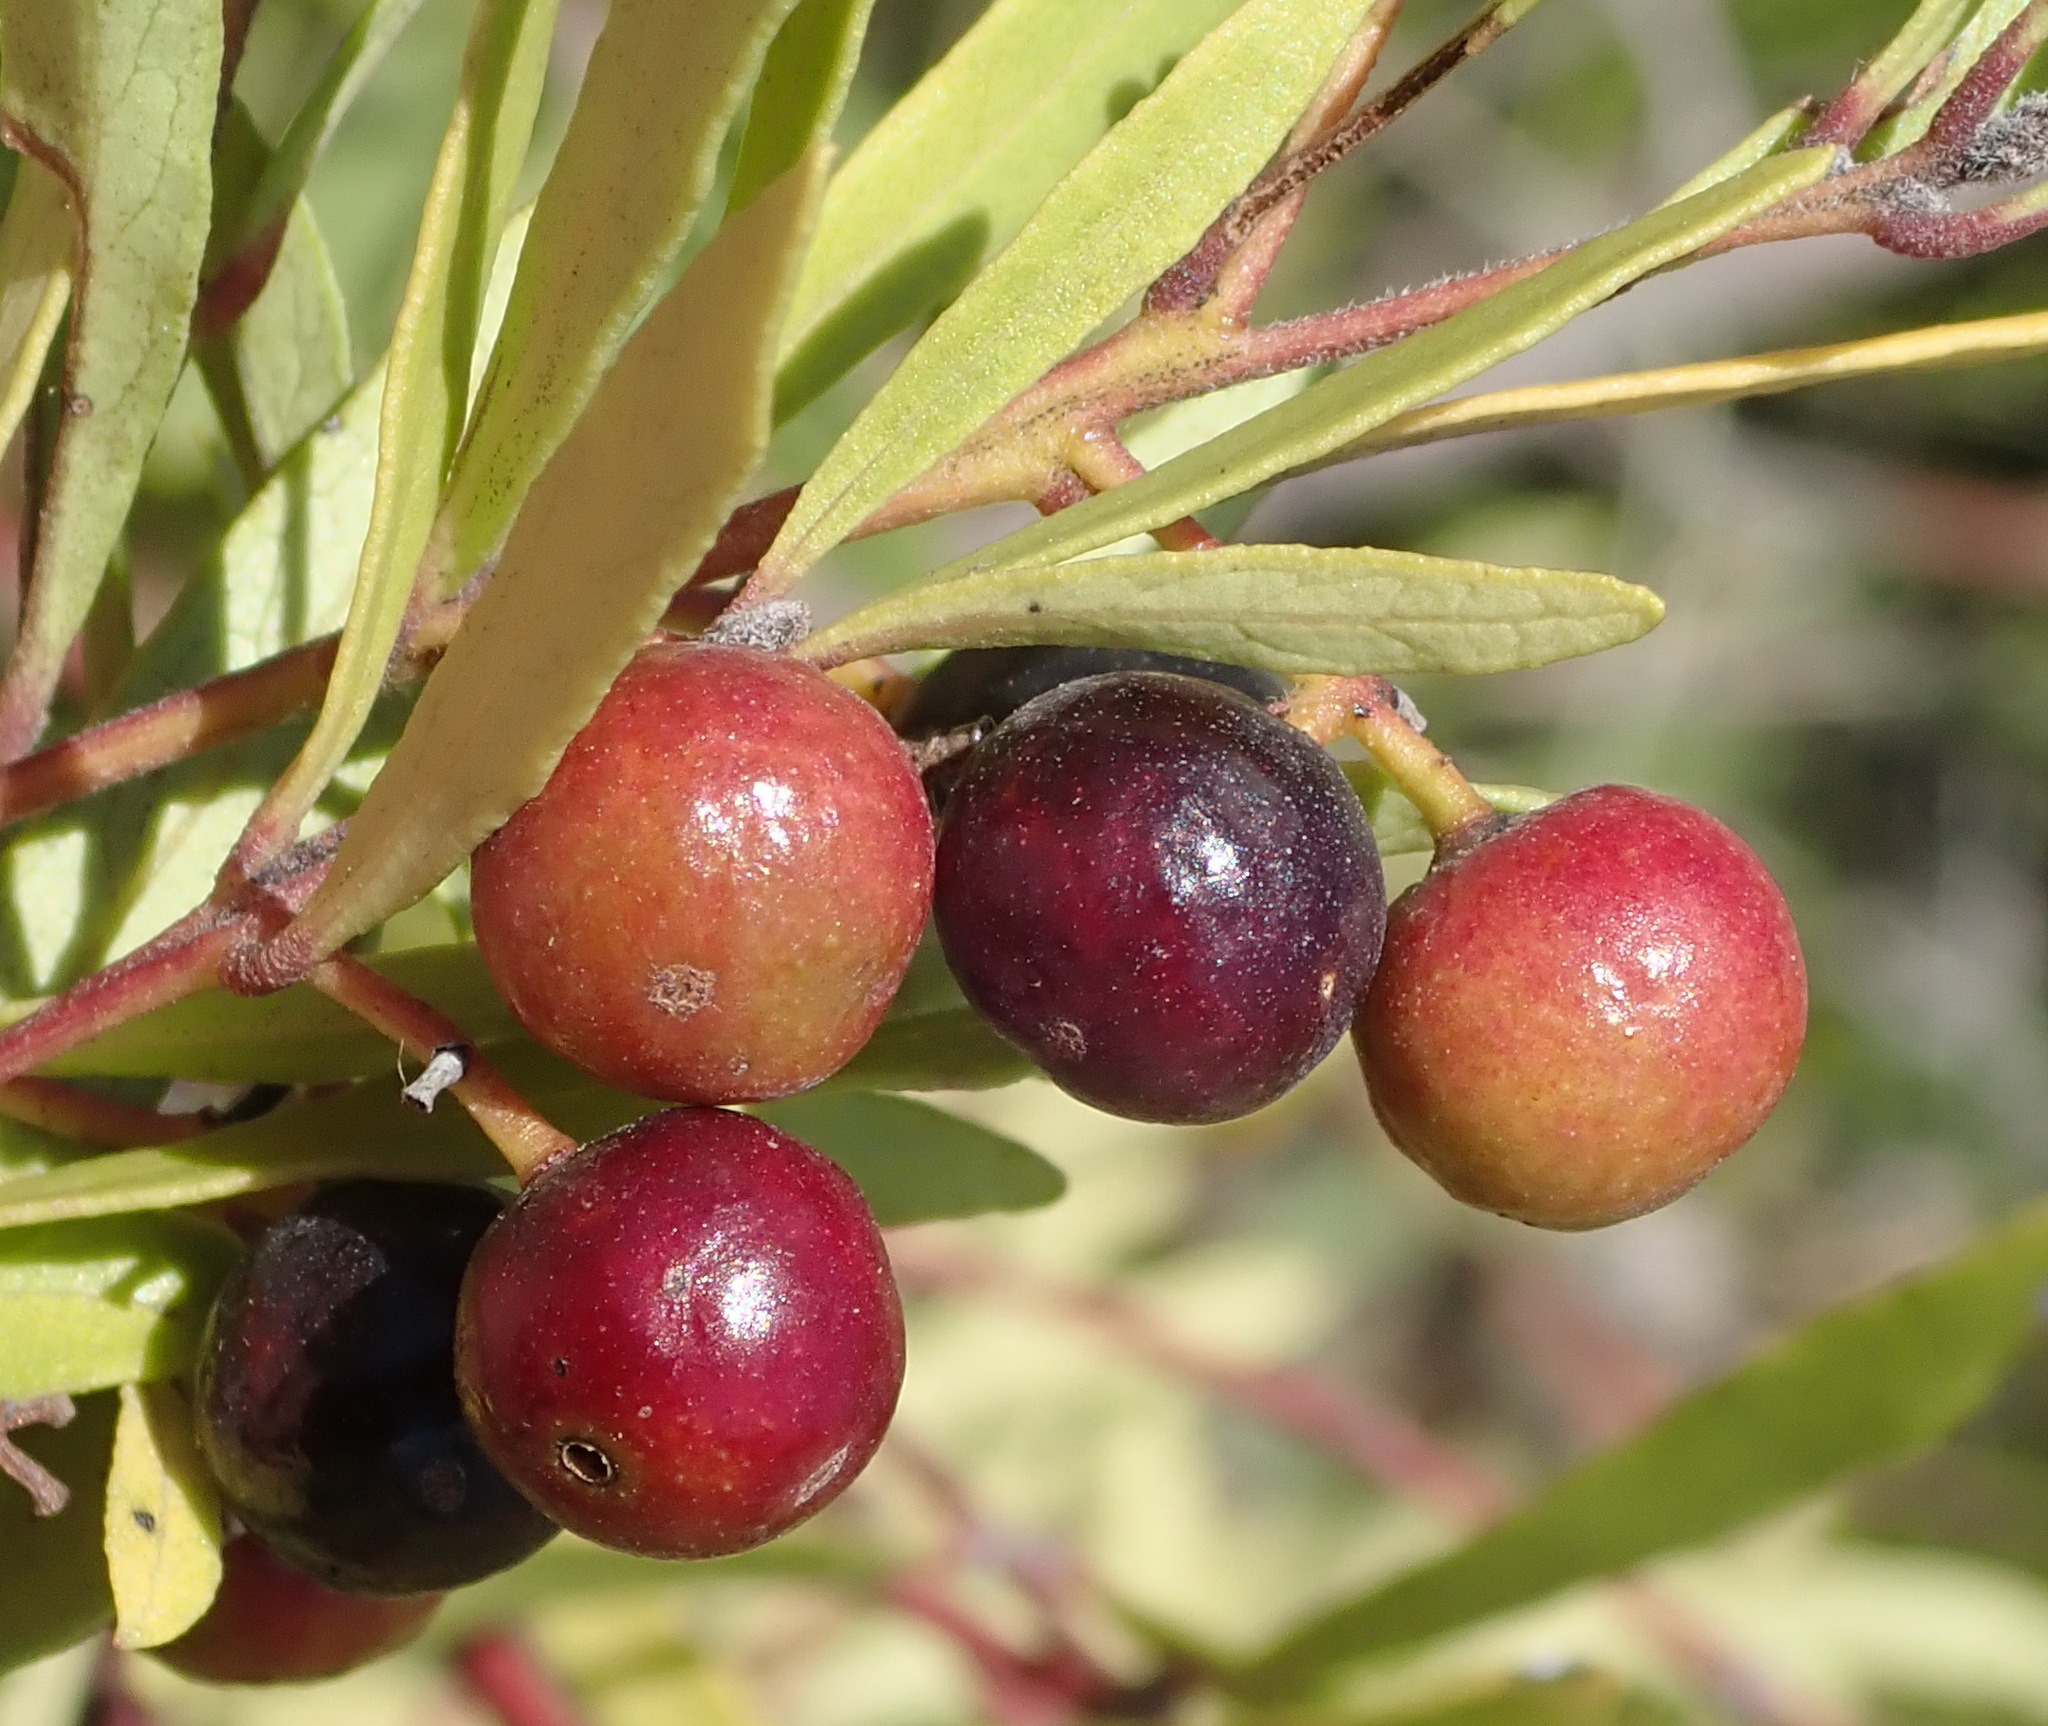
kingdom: Plantae
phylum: Tracheophyta
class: Magnoliopsida
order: Lamiales
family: Oleaceae
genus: Olea
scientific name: Olea europaea
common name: Olive
